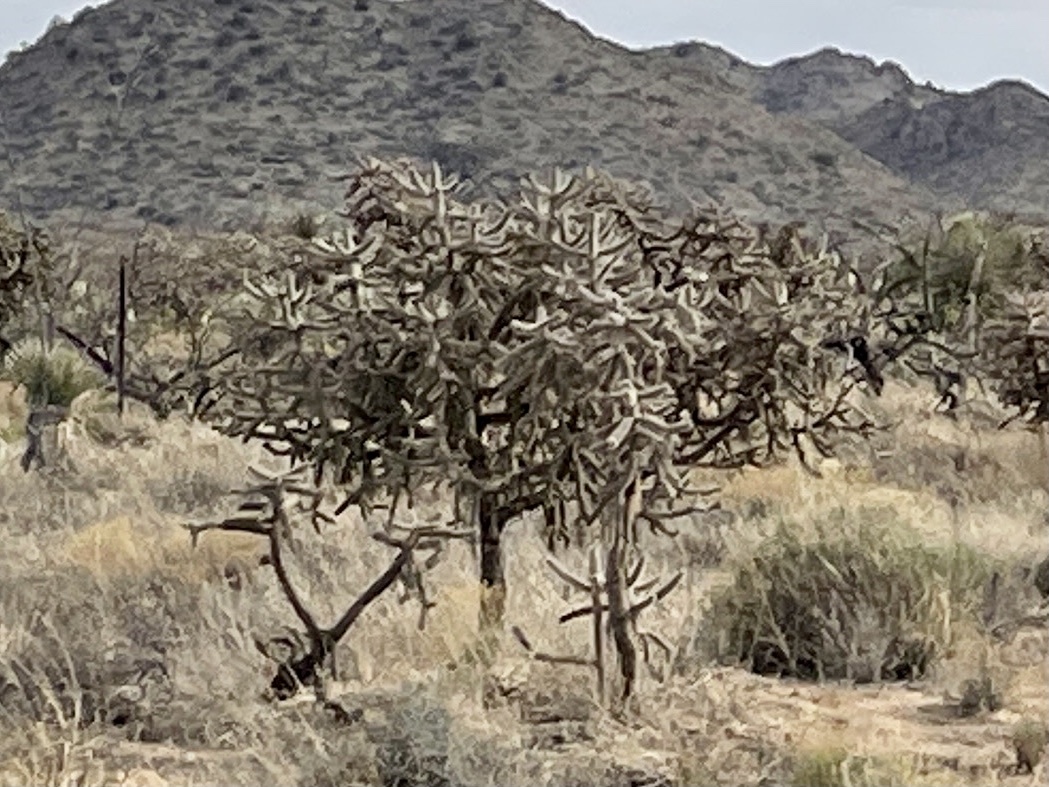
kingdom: Plantae
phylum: Tracheophyta
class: Magnoliopsida
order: Caryophyllales
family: Cactaceae
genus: Cylindropuntia
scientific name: Cylindropuntia imbricata
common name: Candelabrum cactus
